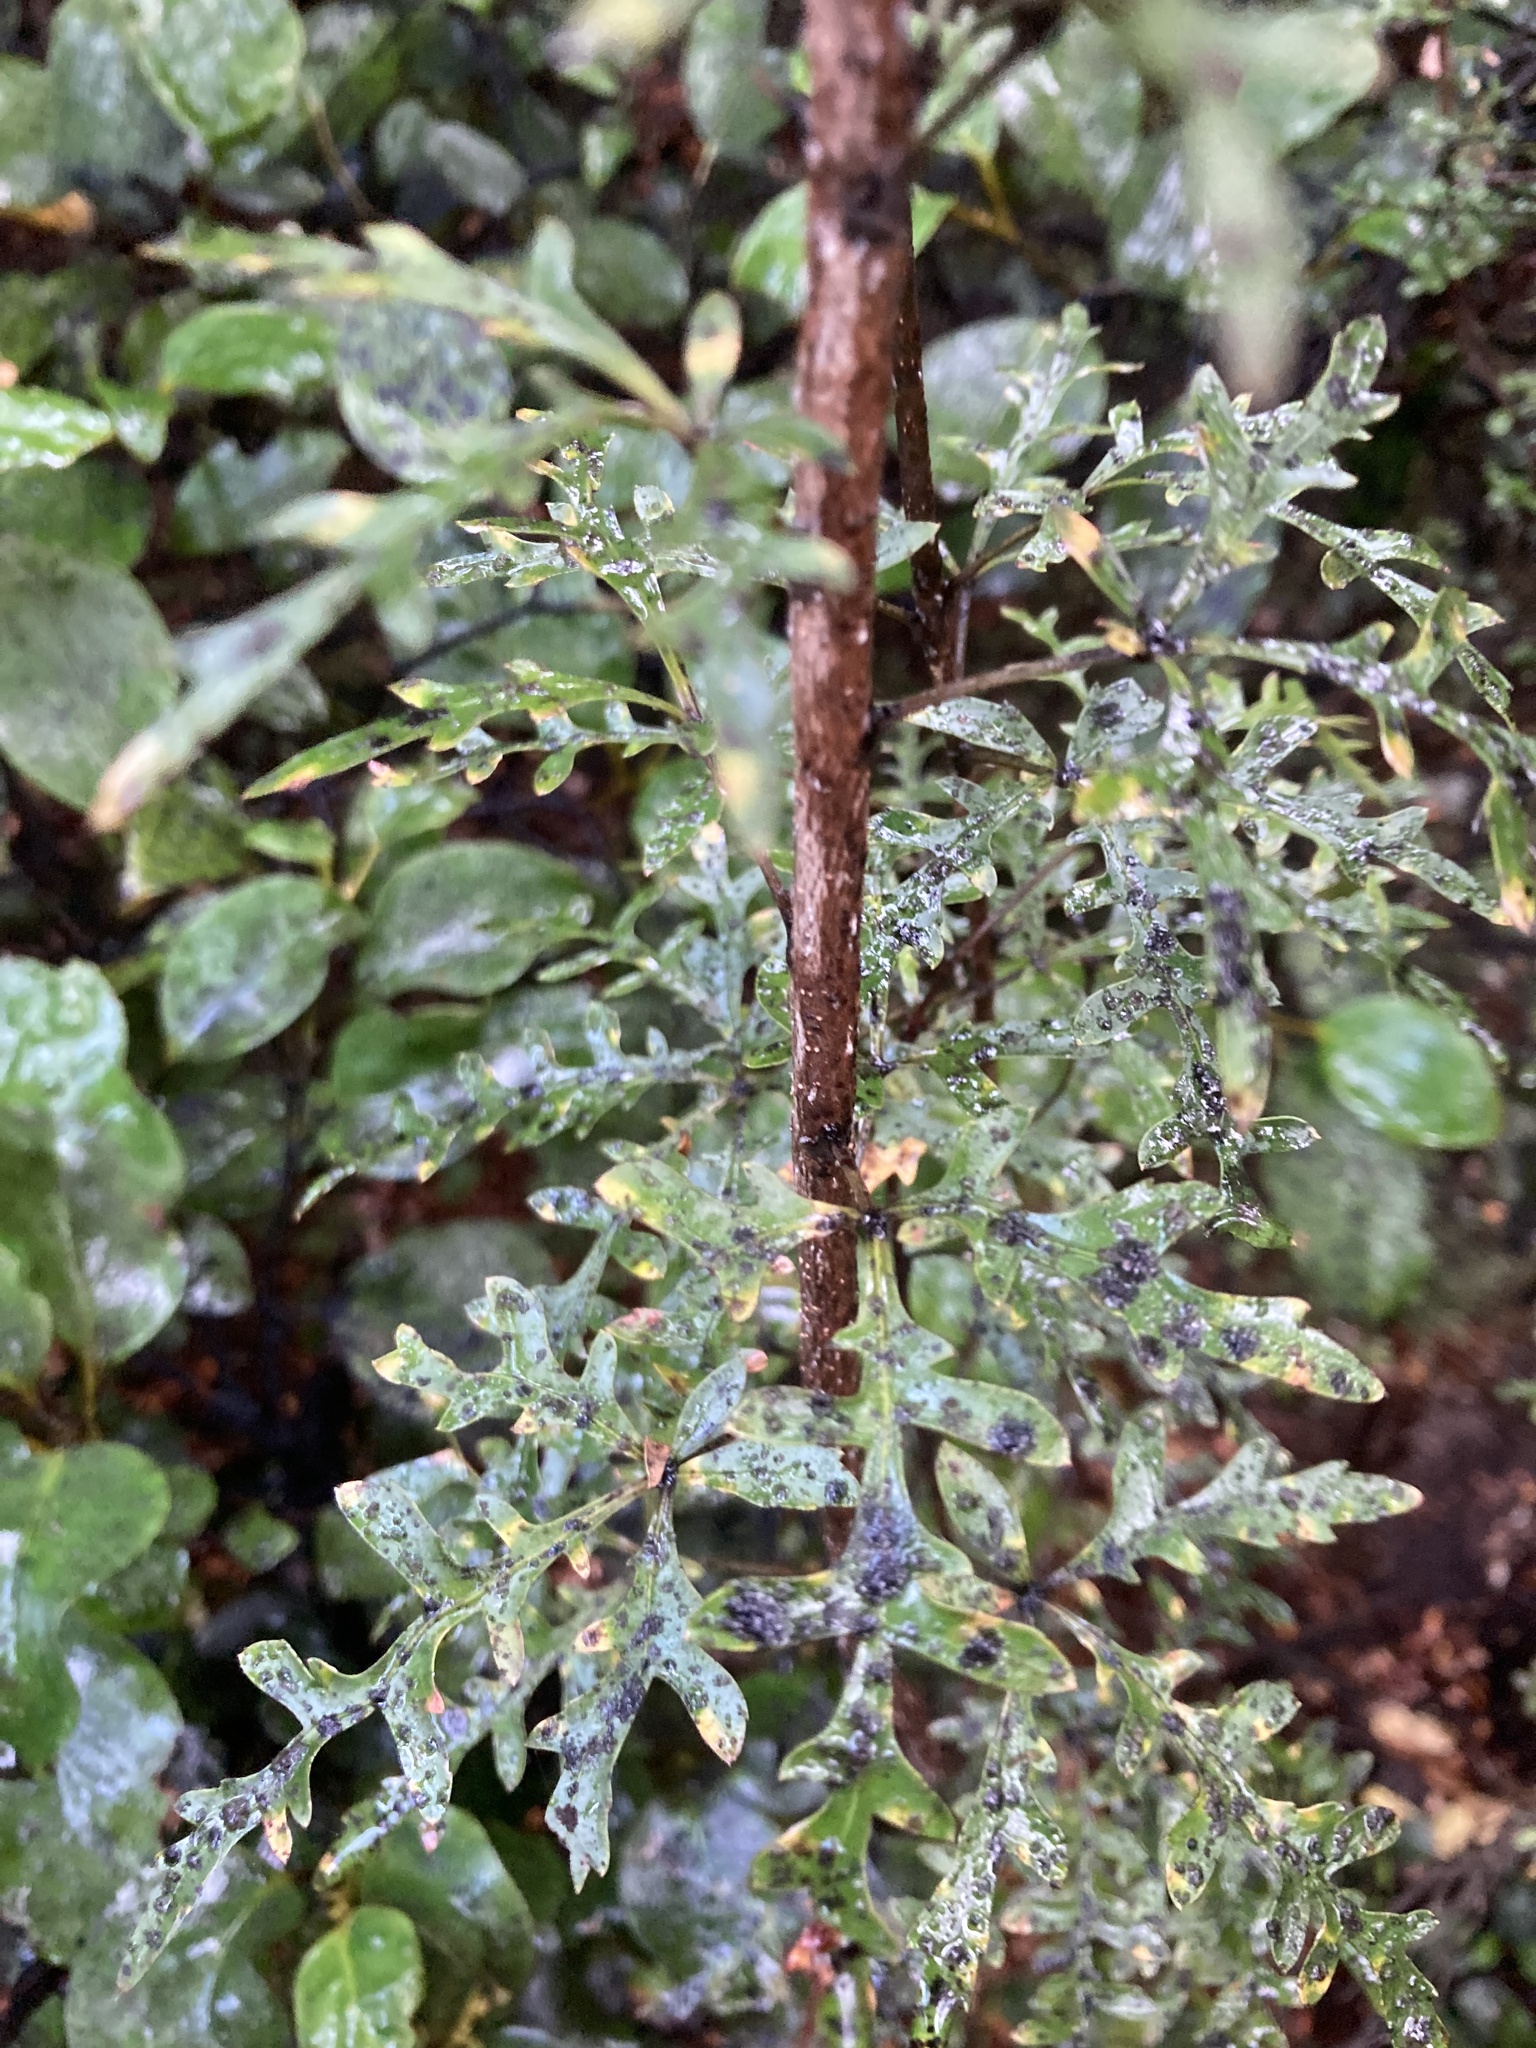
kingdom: Plantae
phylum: Tracheophyta
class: Magnoliopsida
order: Apiales
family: Araliaceae
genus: Raukaua
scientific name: Raukaua simplex
